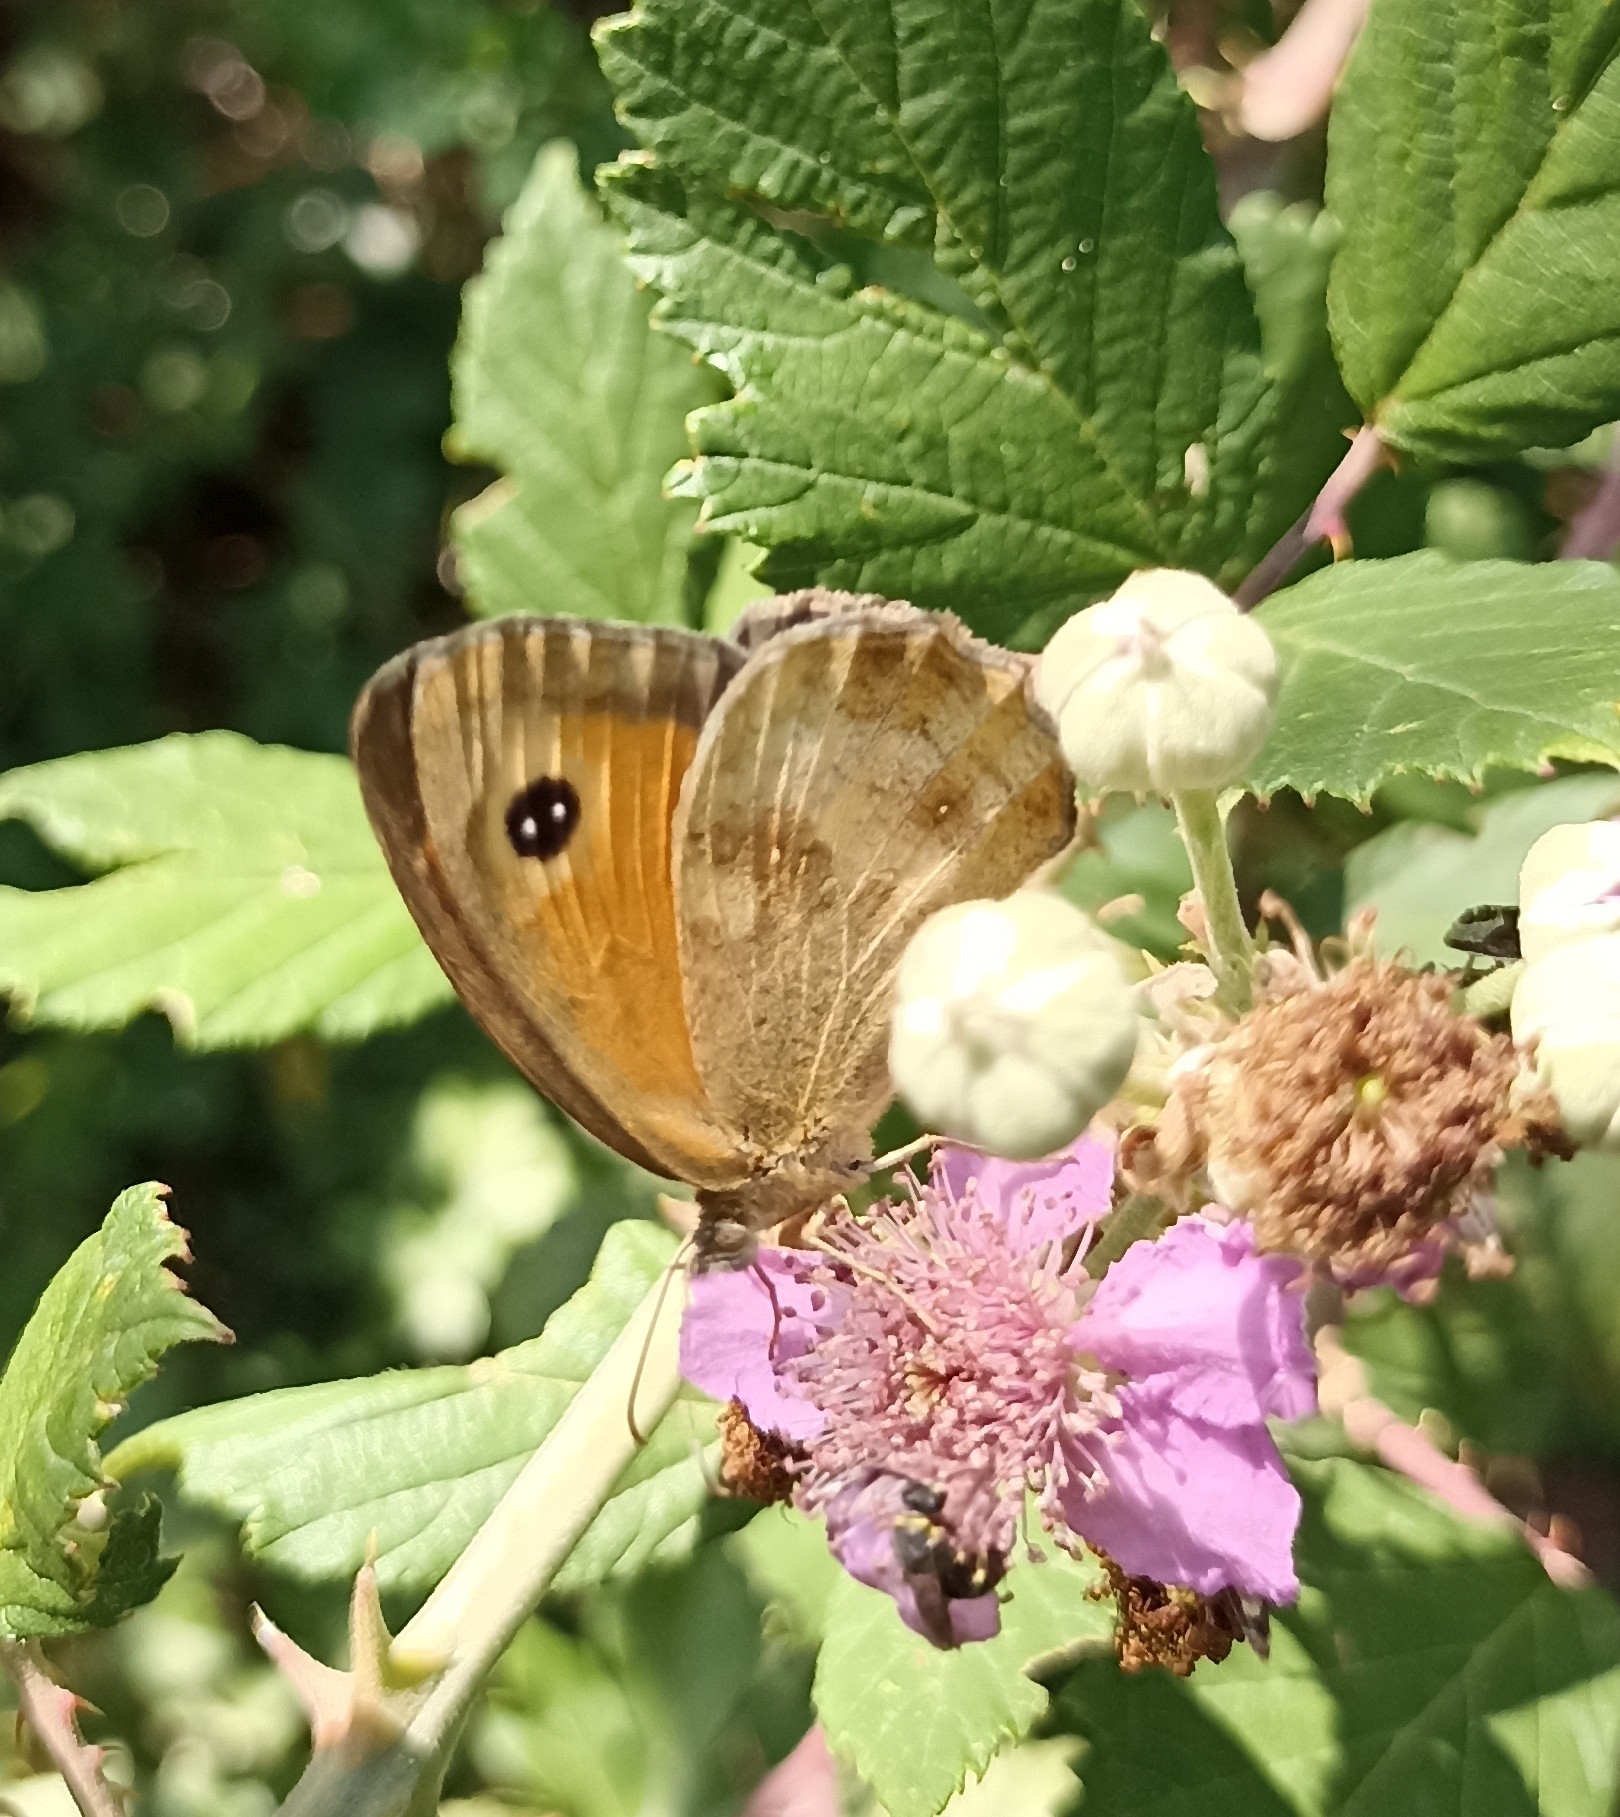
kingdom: Animalia
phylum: Arthropoda
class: Insecta
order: Lepidoptera
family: Nymphalidae
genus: Pyronia
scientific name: Pyronia tithonus
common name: Gatekeeper
